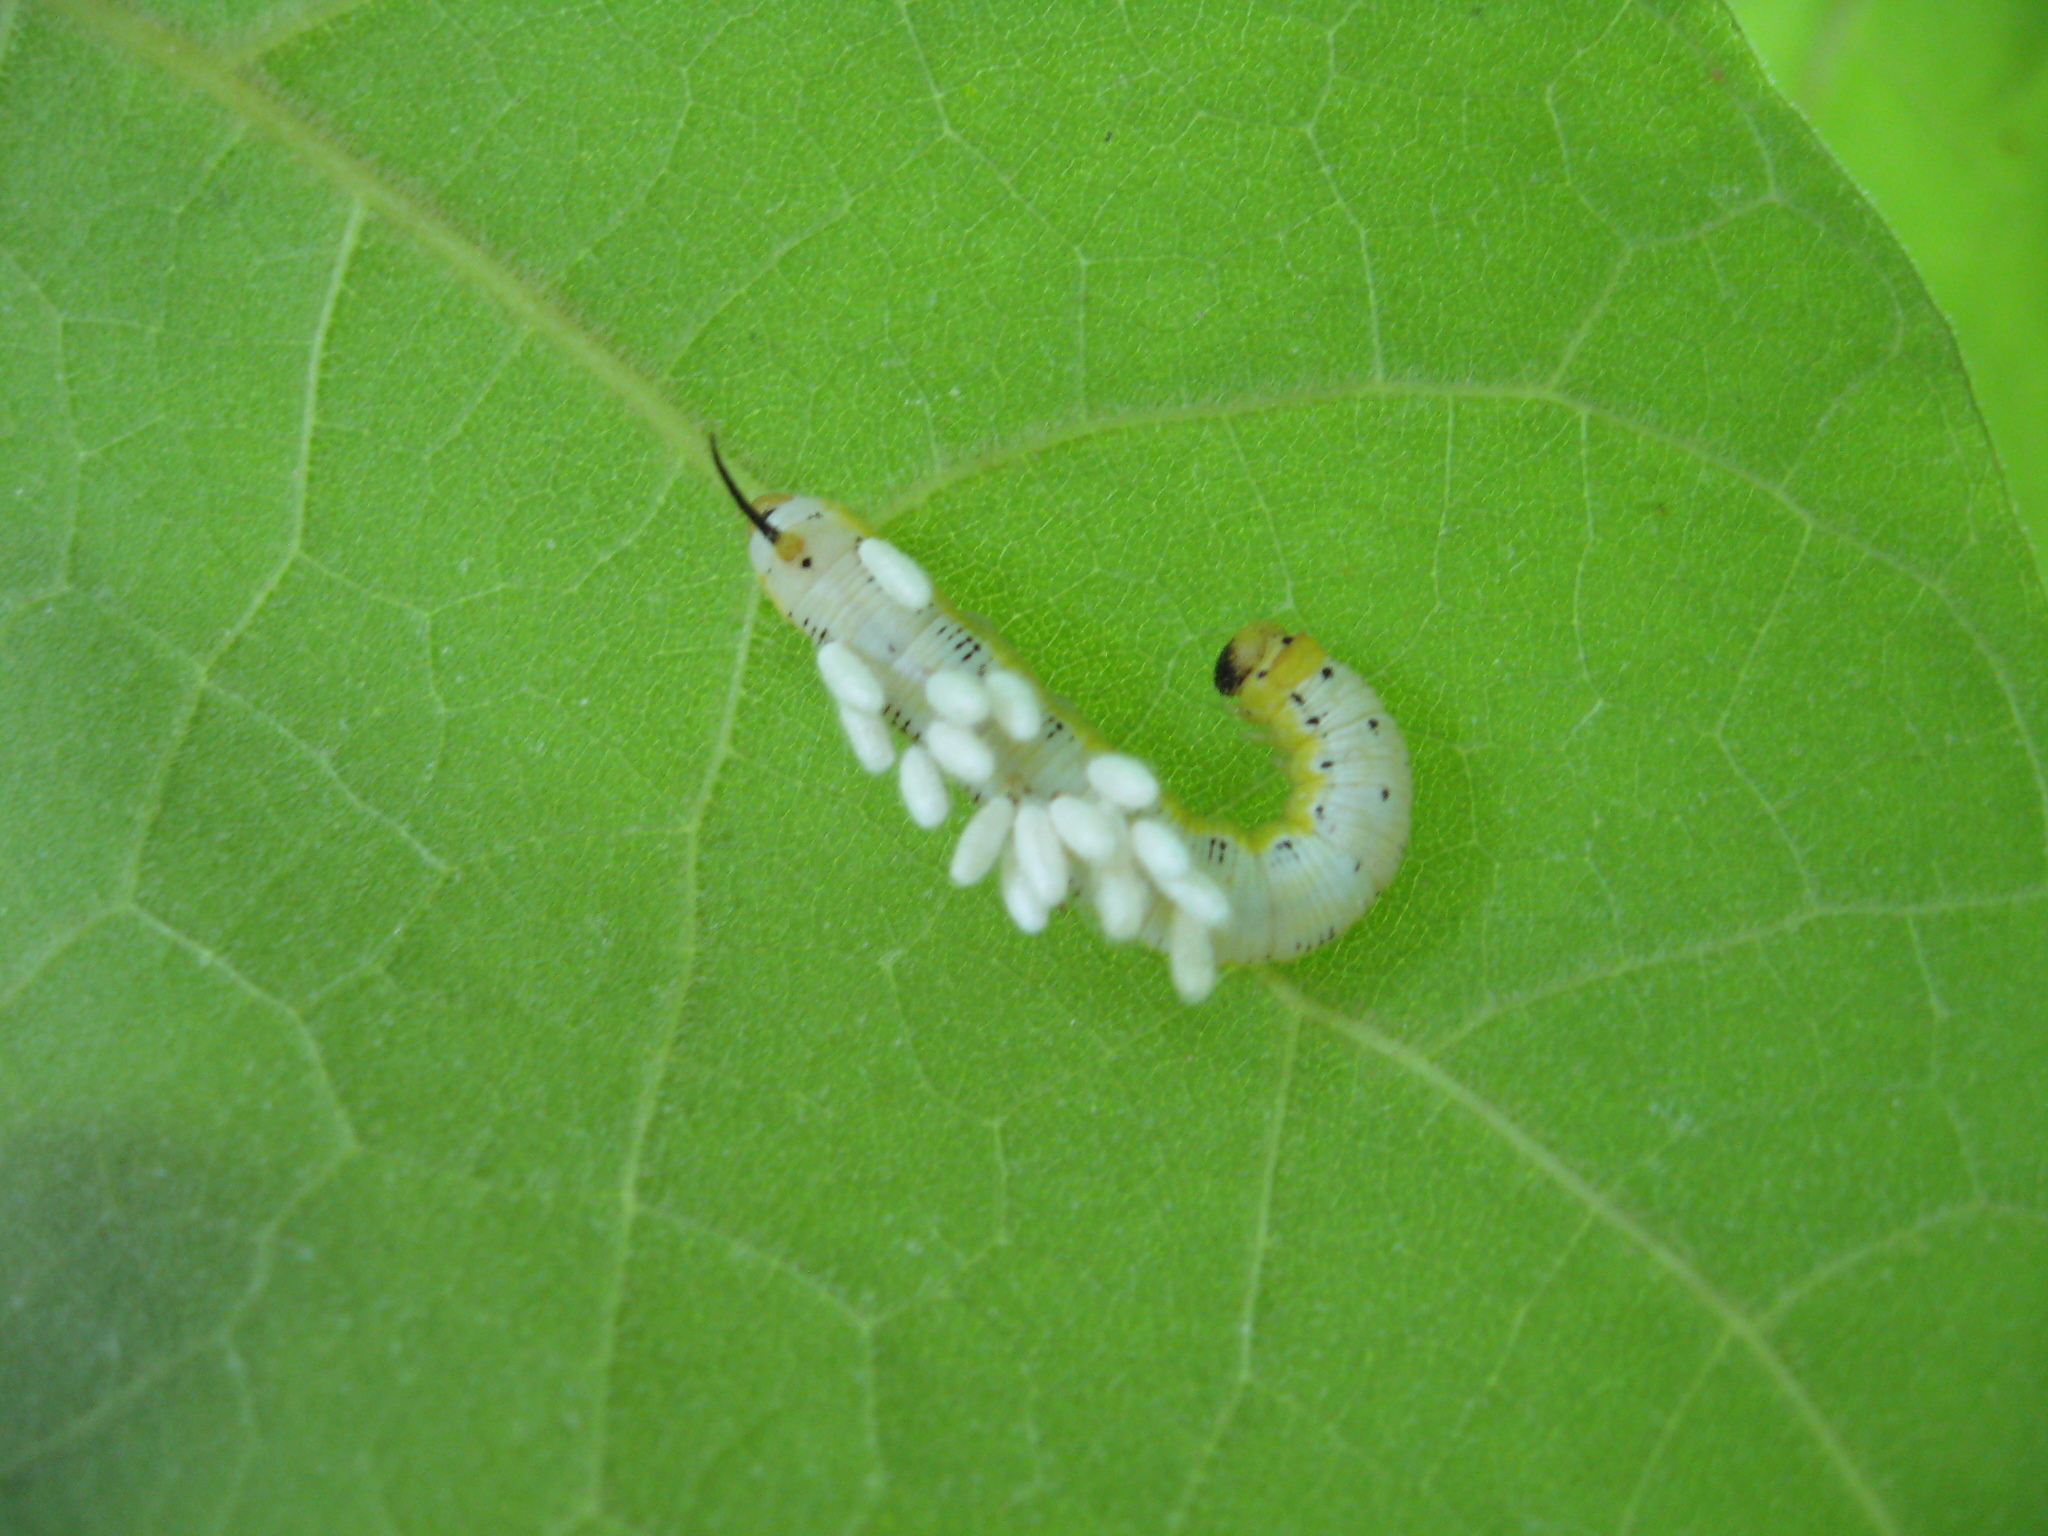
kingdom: Animalia
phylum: Arthropoda
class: Insecta
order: Lepidoptera
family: Sphingidae
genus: Ceratomia
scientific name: Ceratomia catalpae
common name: Catalpa hornworm
